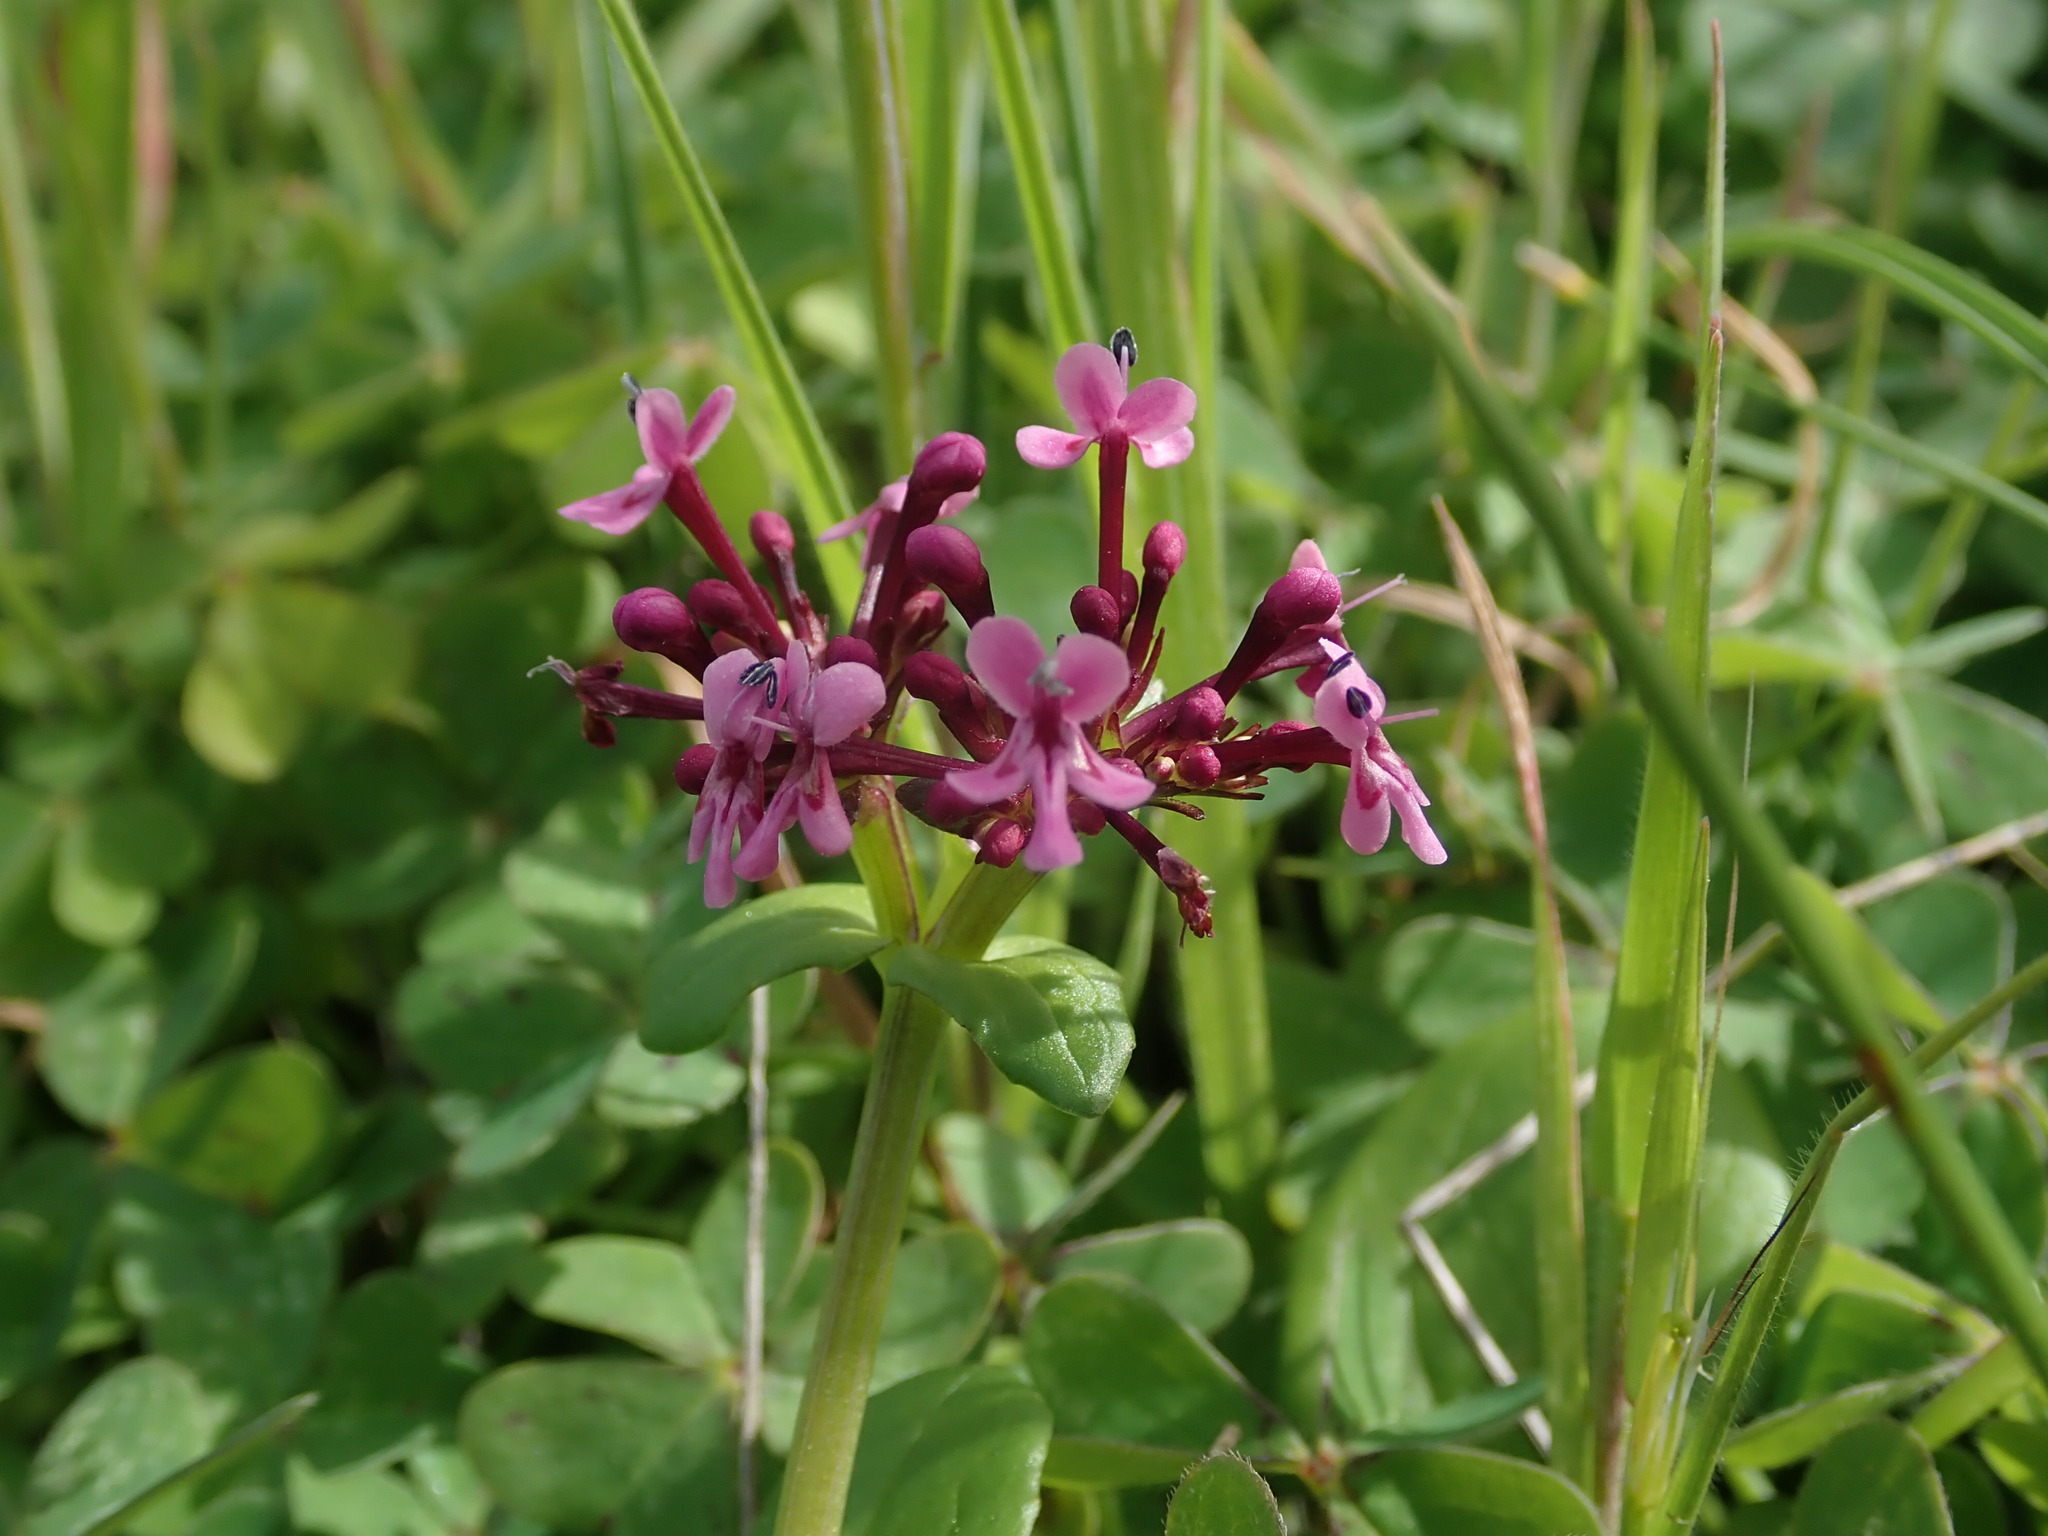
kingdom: Plantae
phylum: Tracheophyta
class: Magnoliopsida
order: Dipsacales
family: Caprifoliaceae
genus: Fedia
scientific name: Fedia graciliflora
